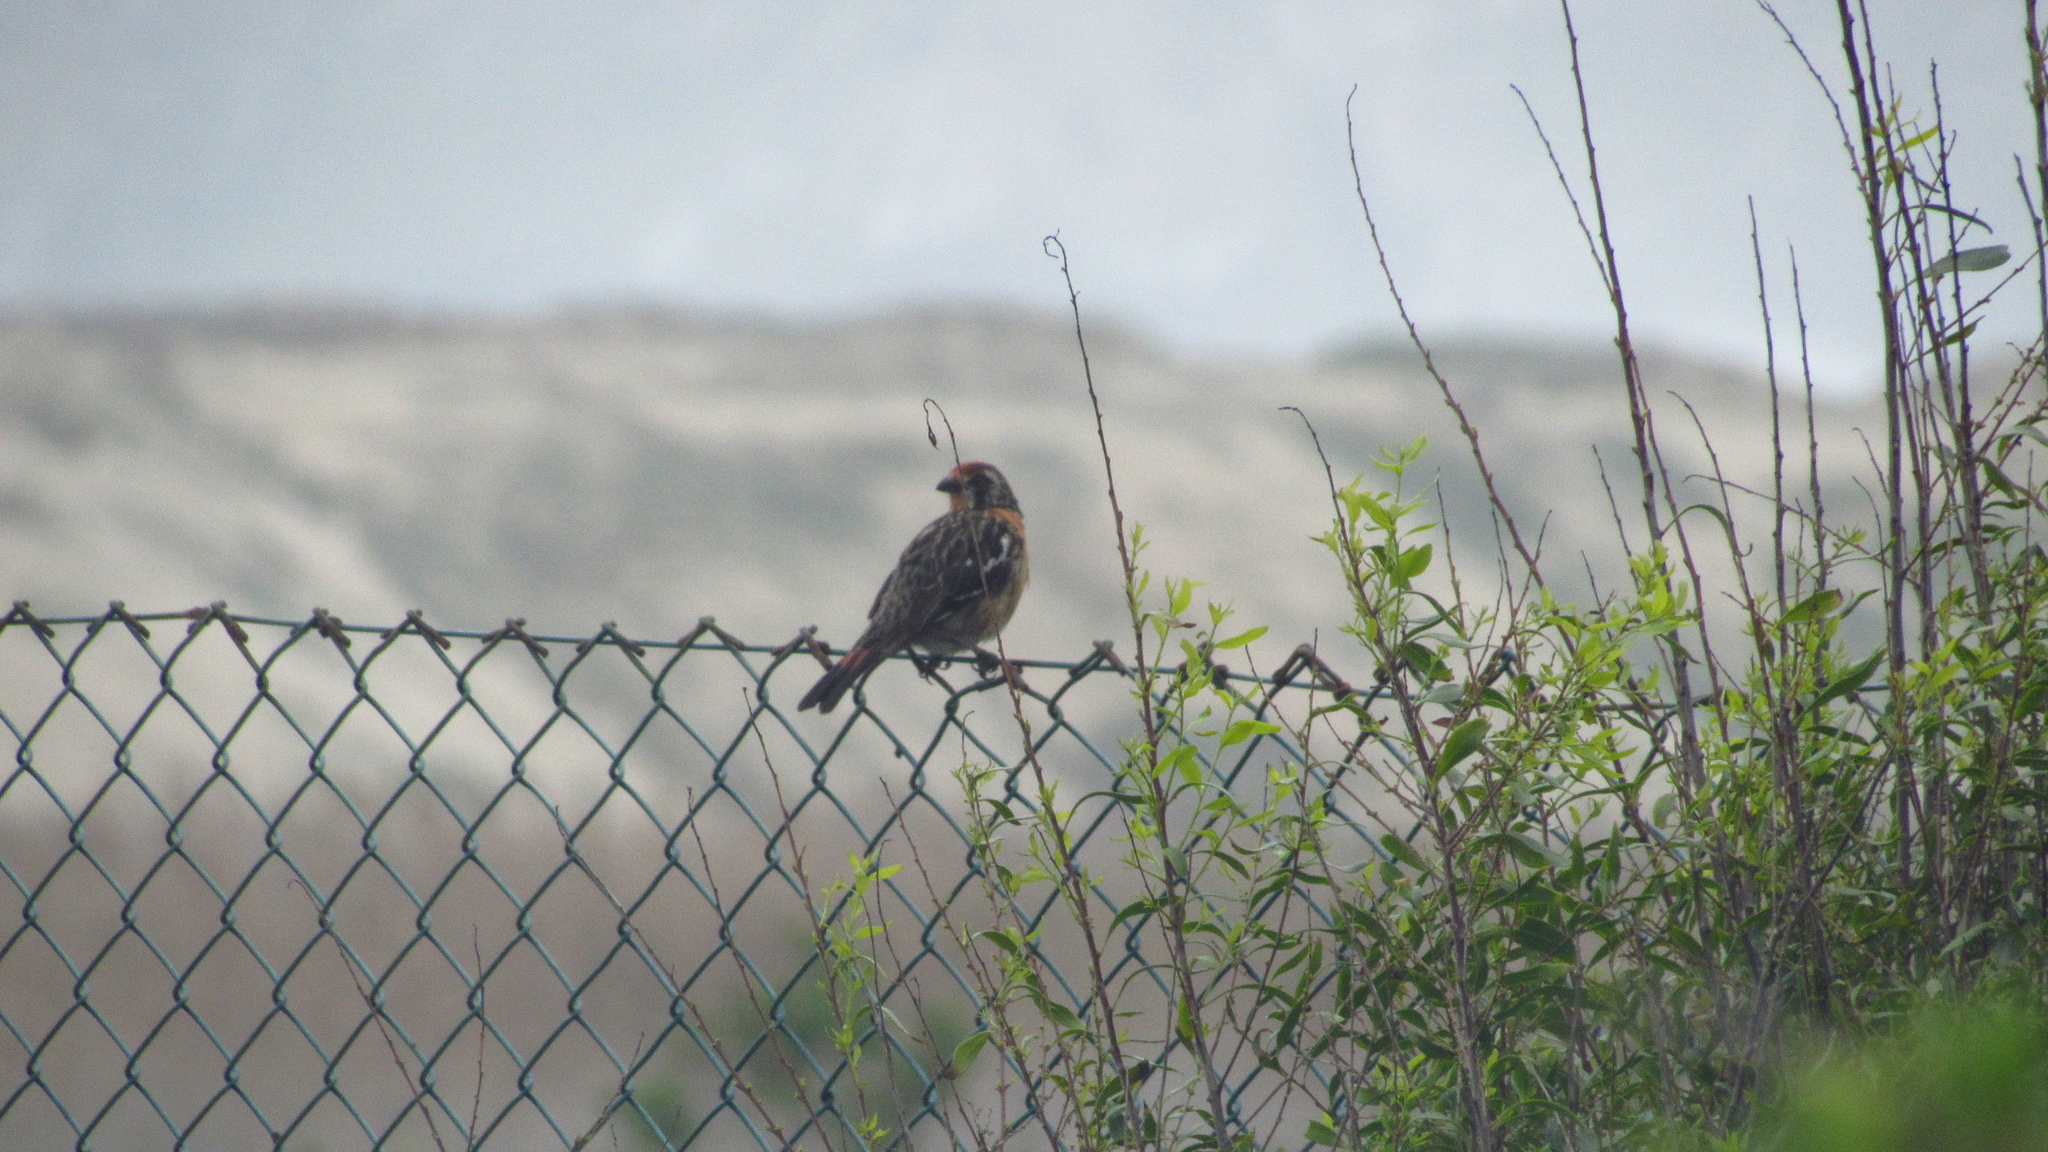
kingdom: Animalia
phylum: Chordata
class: Aves
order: Passeriformes
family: Cotingidae
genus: Phytotoma
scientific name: Phytotoma rara
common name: Rufous-tailed plantcutter
